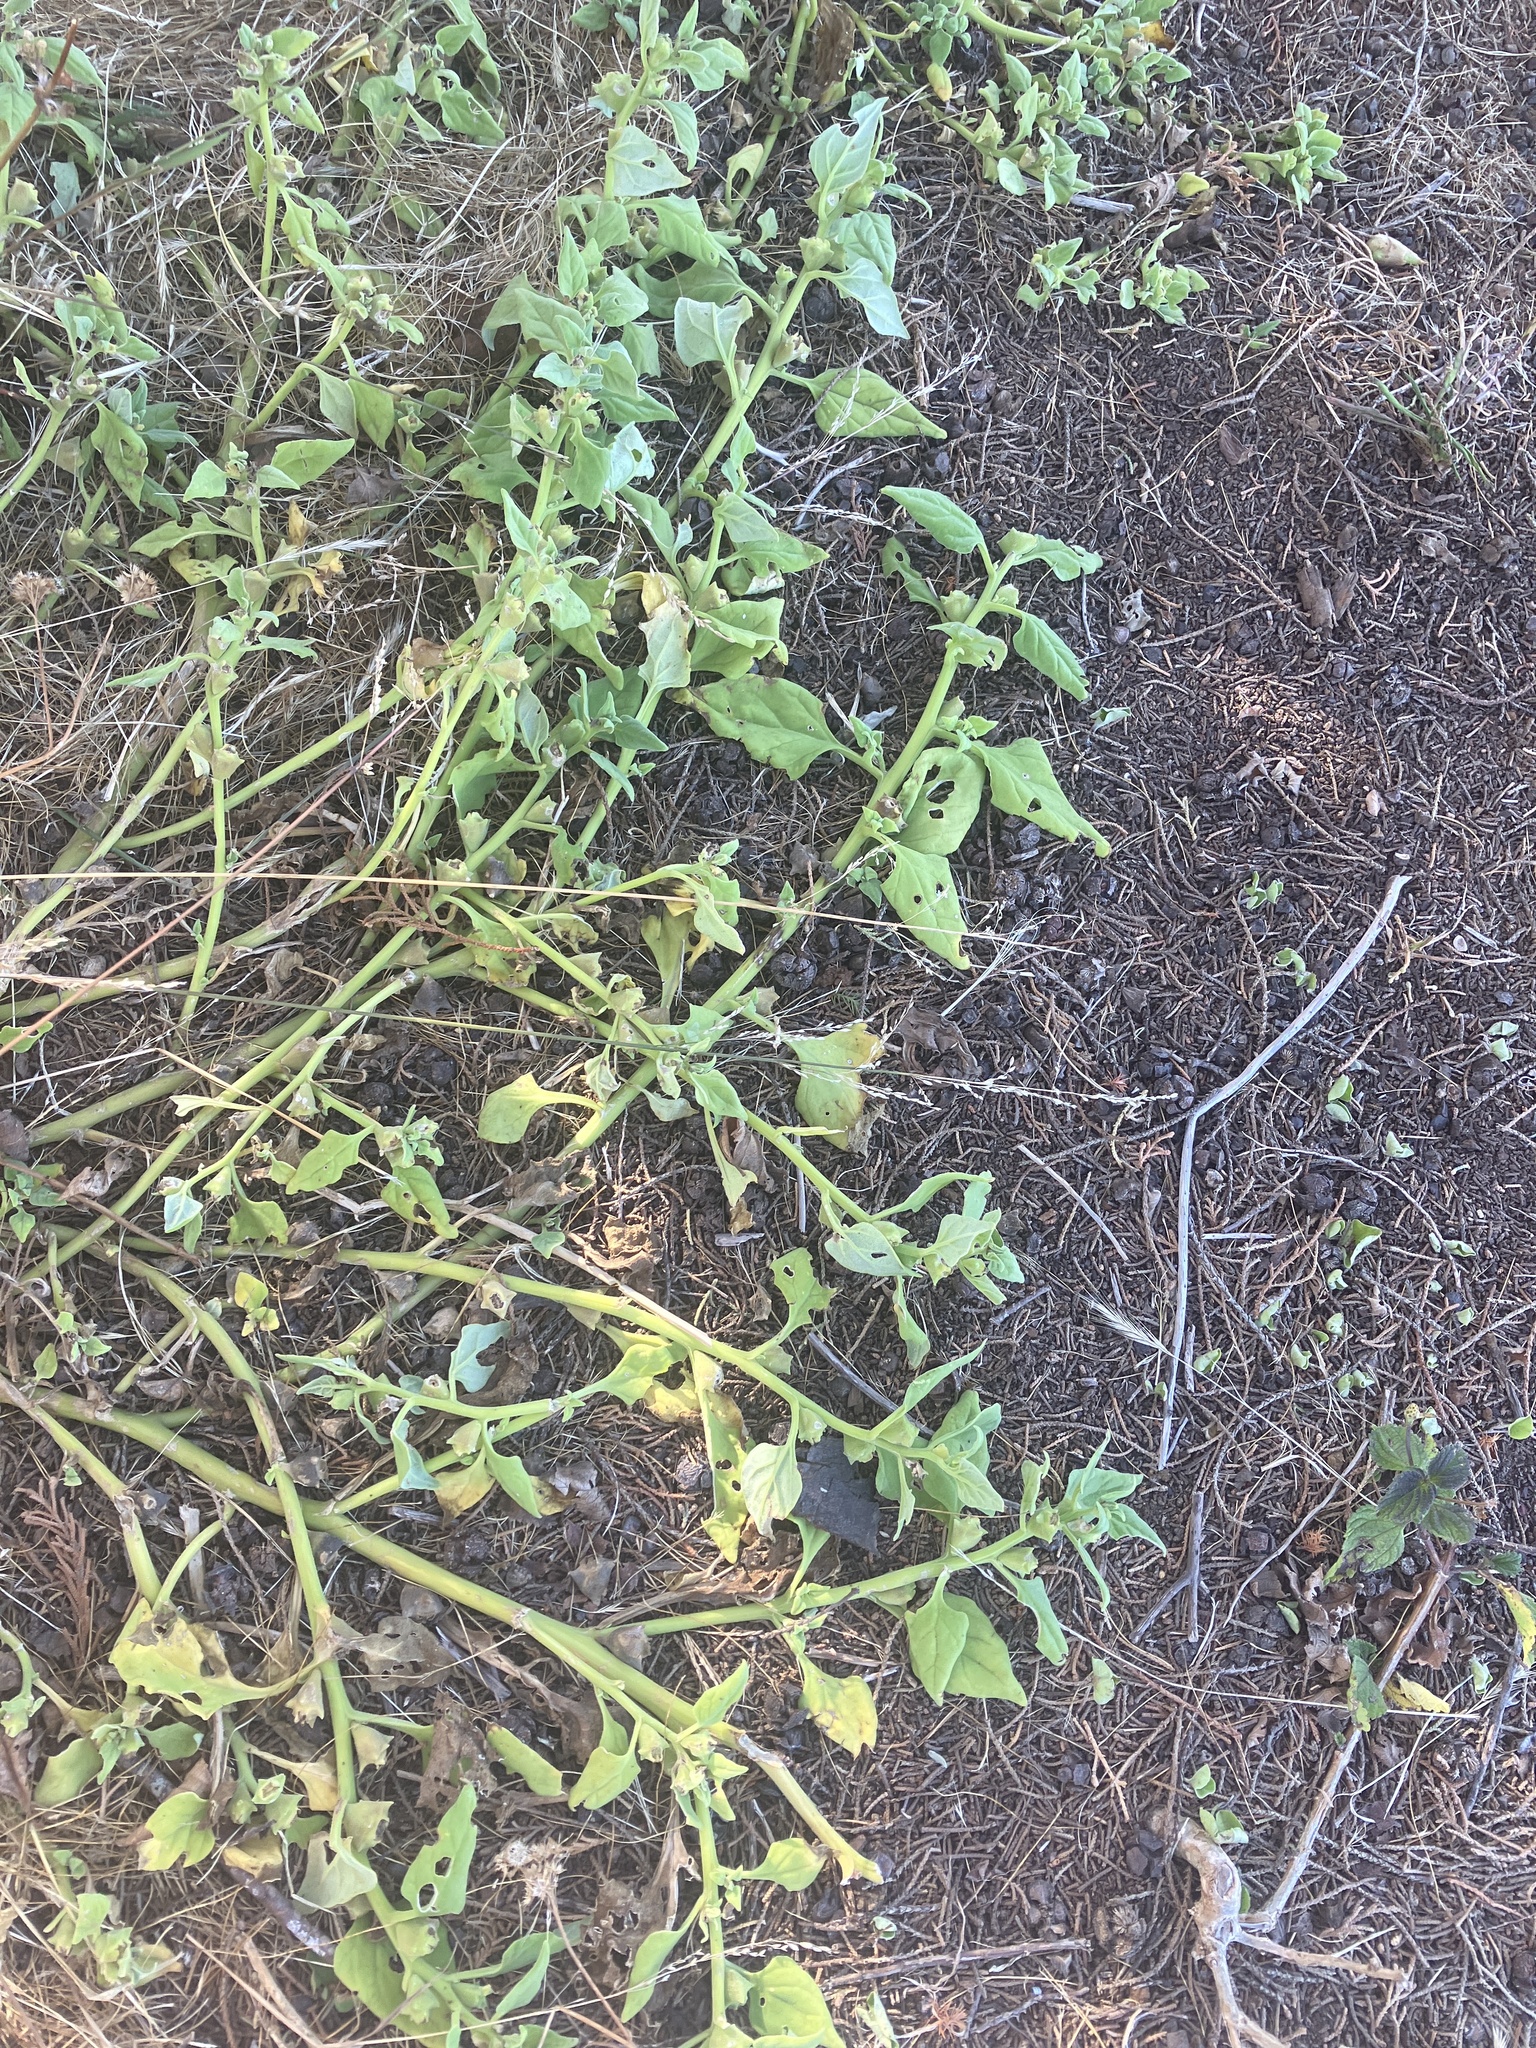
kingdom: Plantae
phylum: Tracheophyta
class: Magnoliopsida
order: Caryophyllales
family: Aizoaceae
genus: Tetragonia
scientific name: Tetragonia tetragonoides
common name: New zealand-spinach
